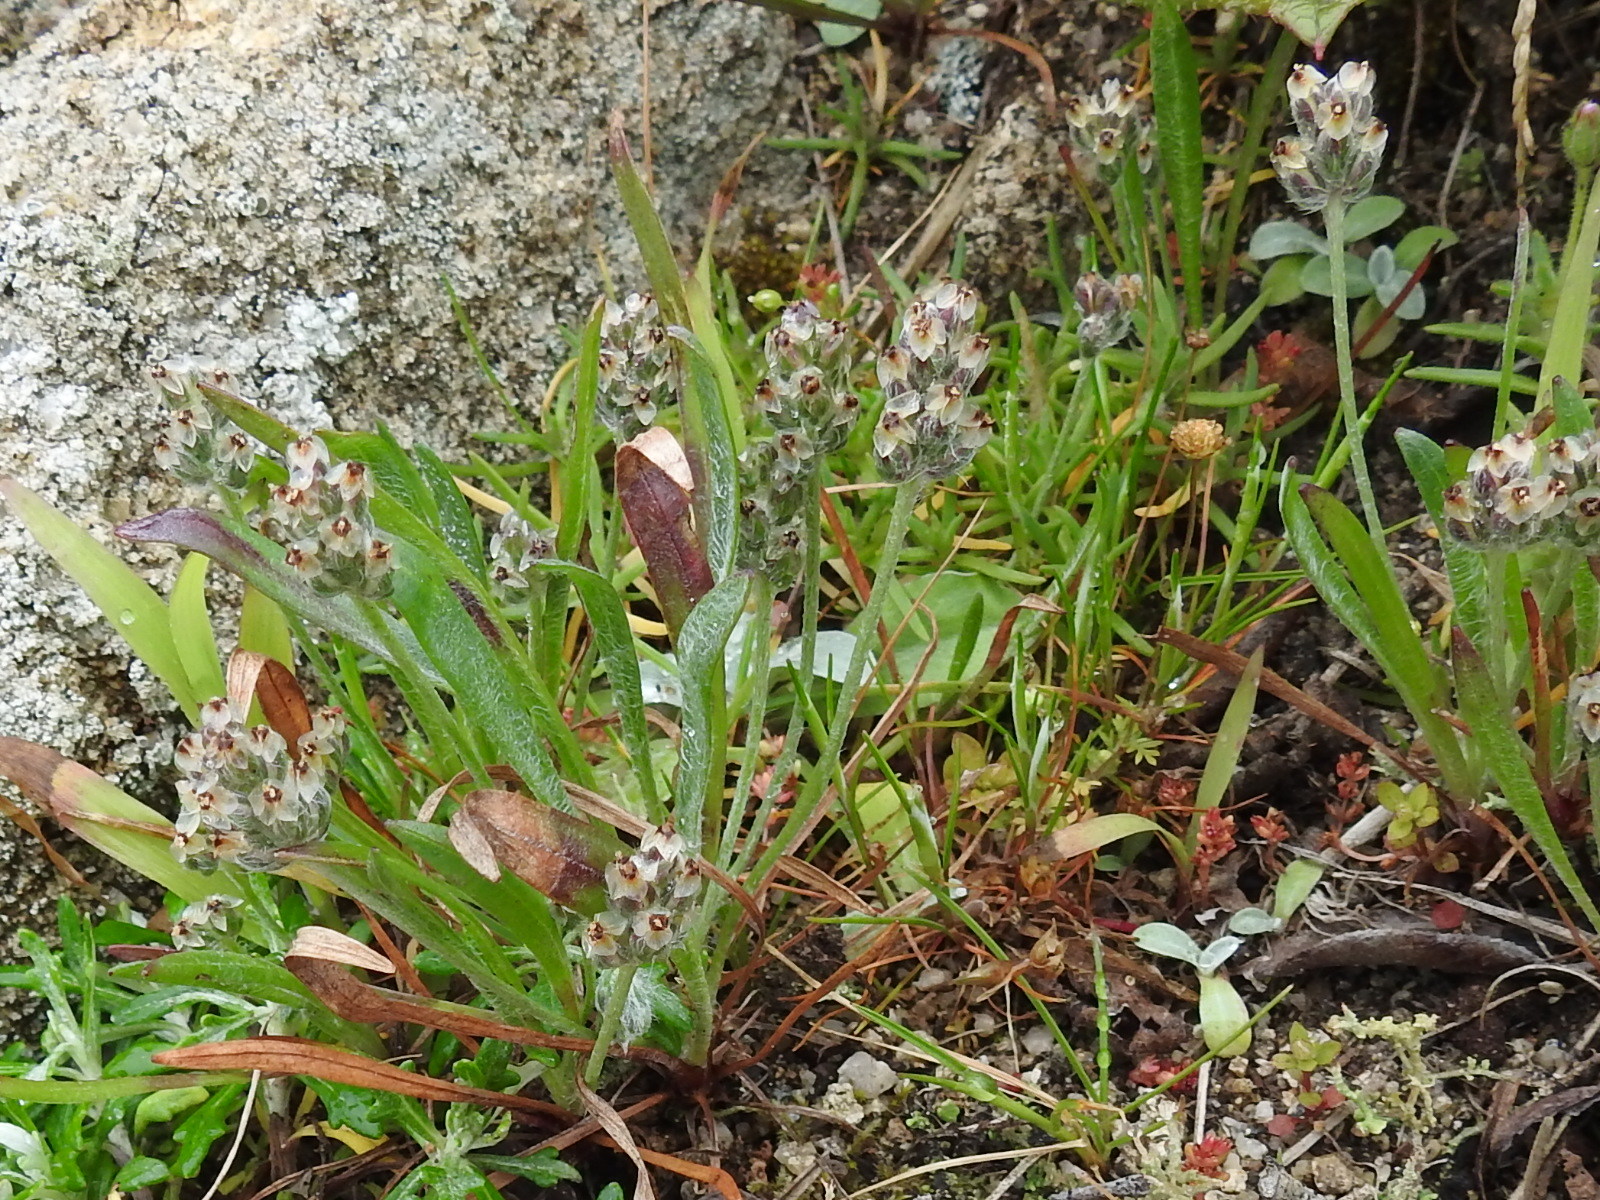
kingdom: Plantae
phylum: Tracheophyta
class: Magnoliopsida
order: Lamiales
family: Plantaginaceae
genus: Plantago
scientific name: Plantago erecta
